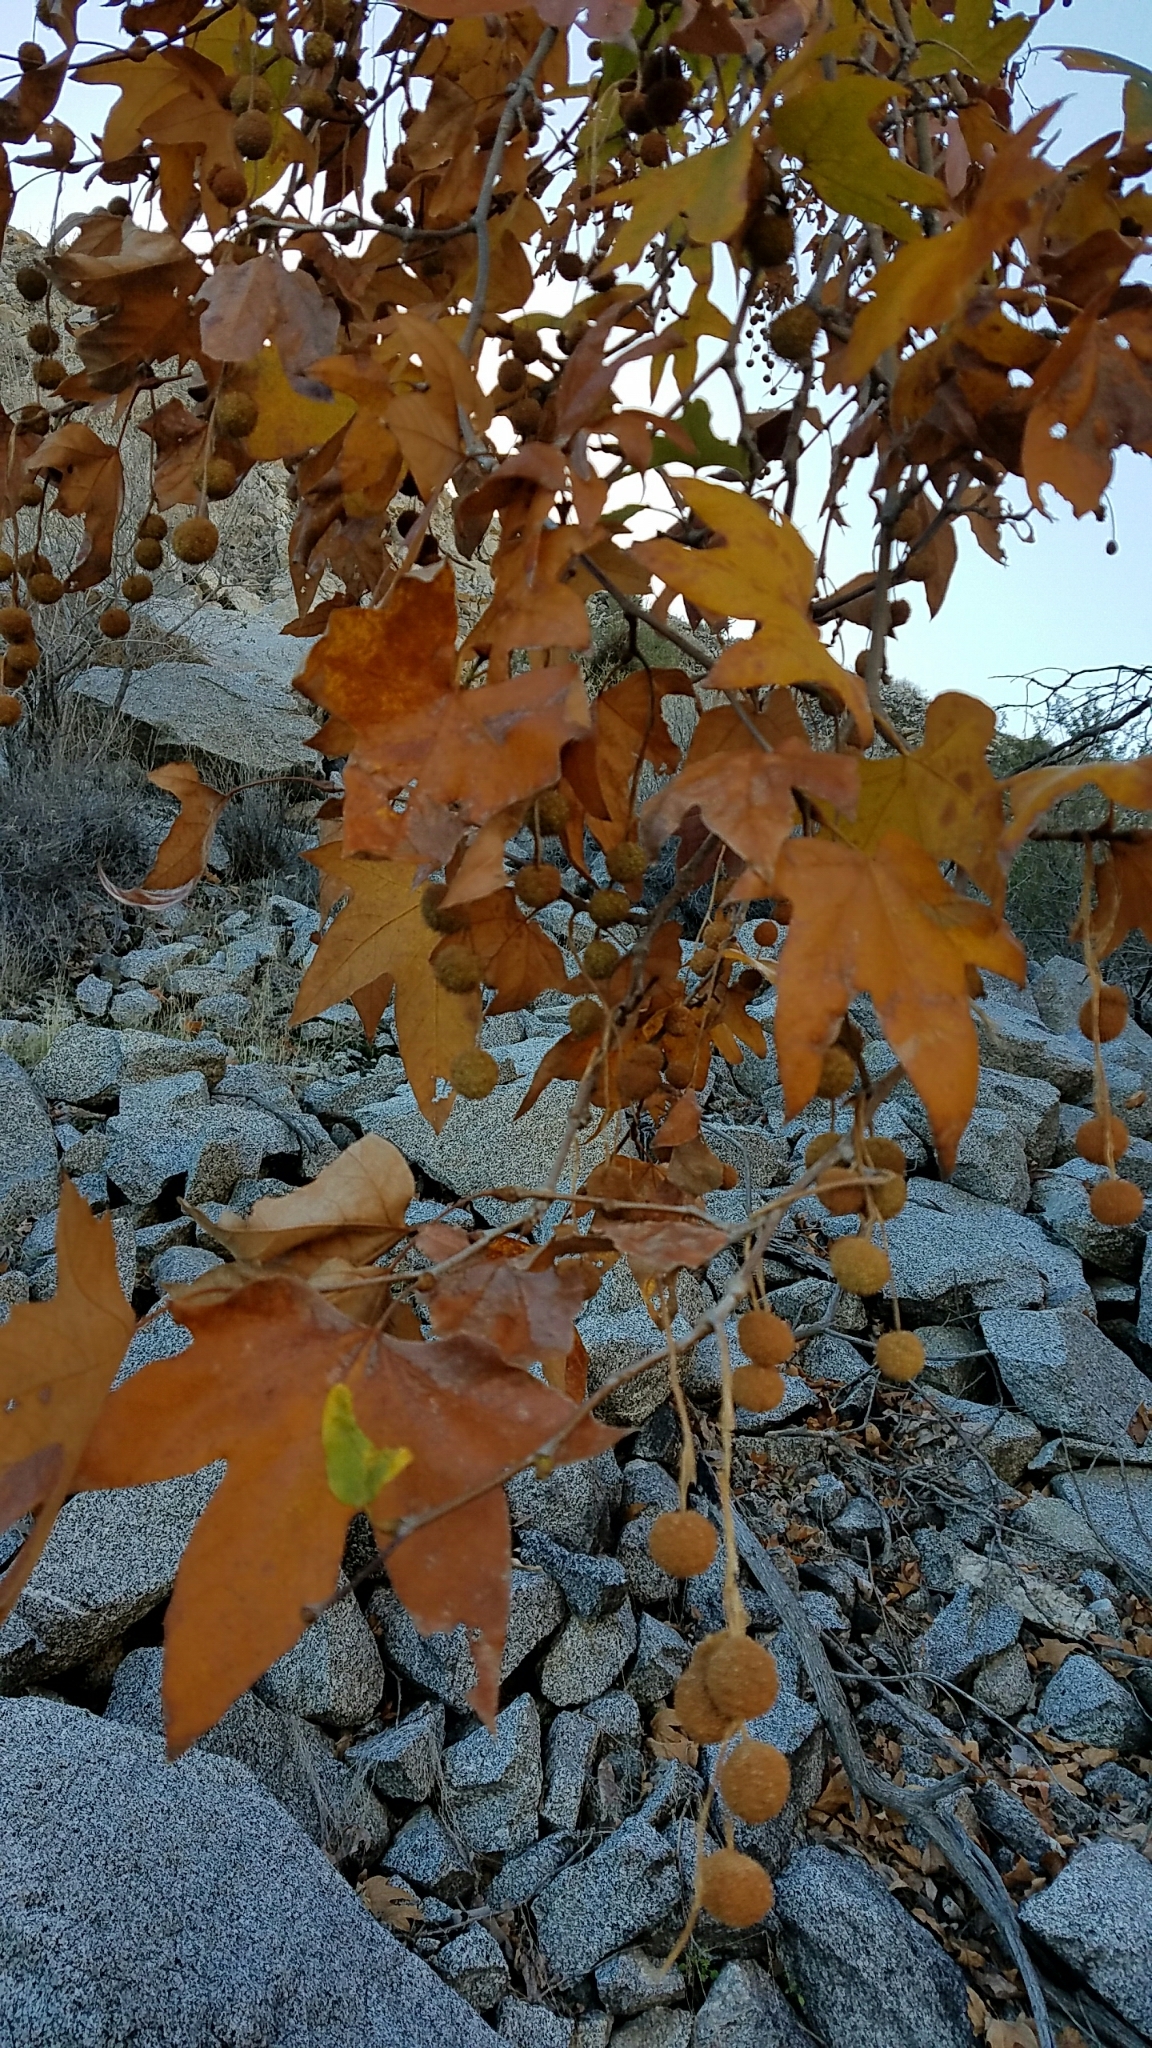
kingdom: Plantae
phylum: Tracheophyta
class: Magnoliopsida
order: Proteales
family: Platanaceae
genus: Platanus
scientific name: Platanus racemosa
